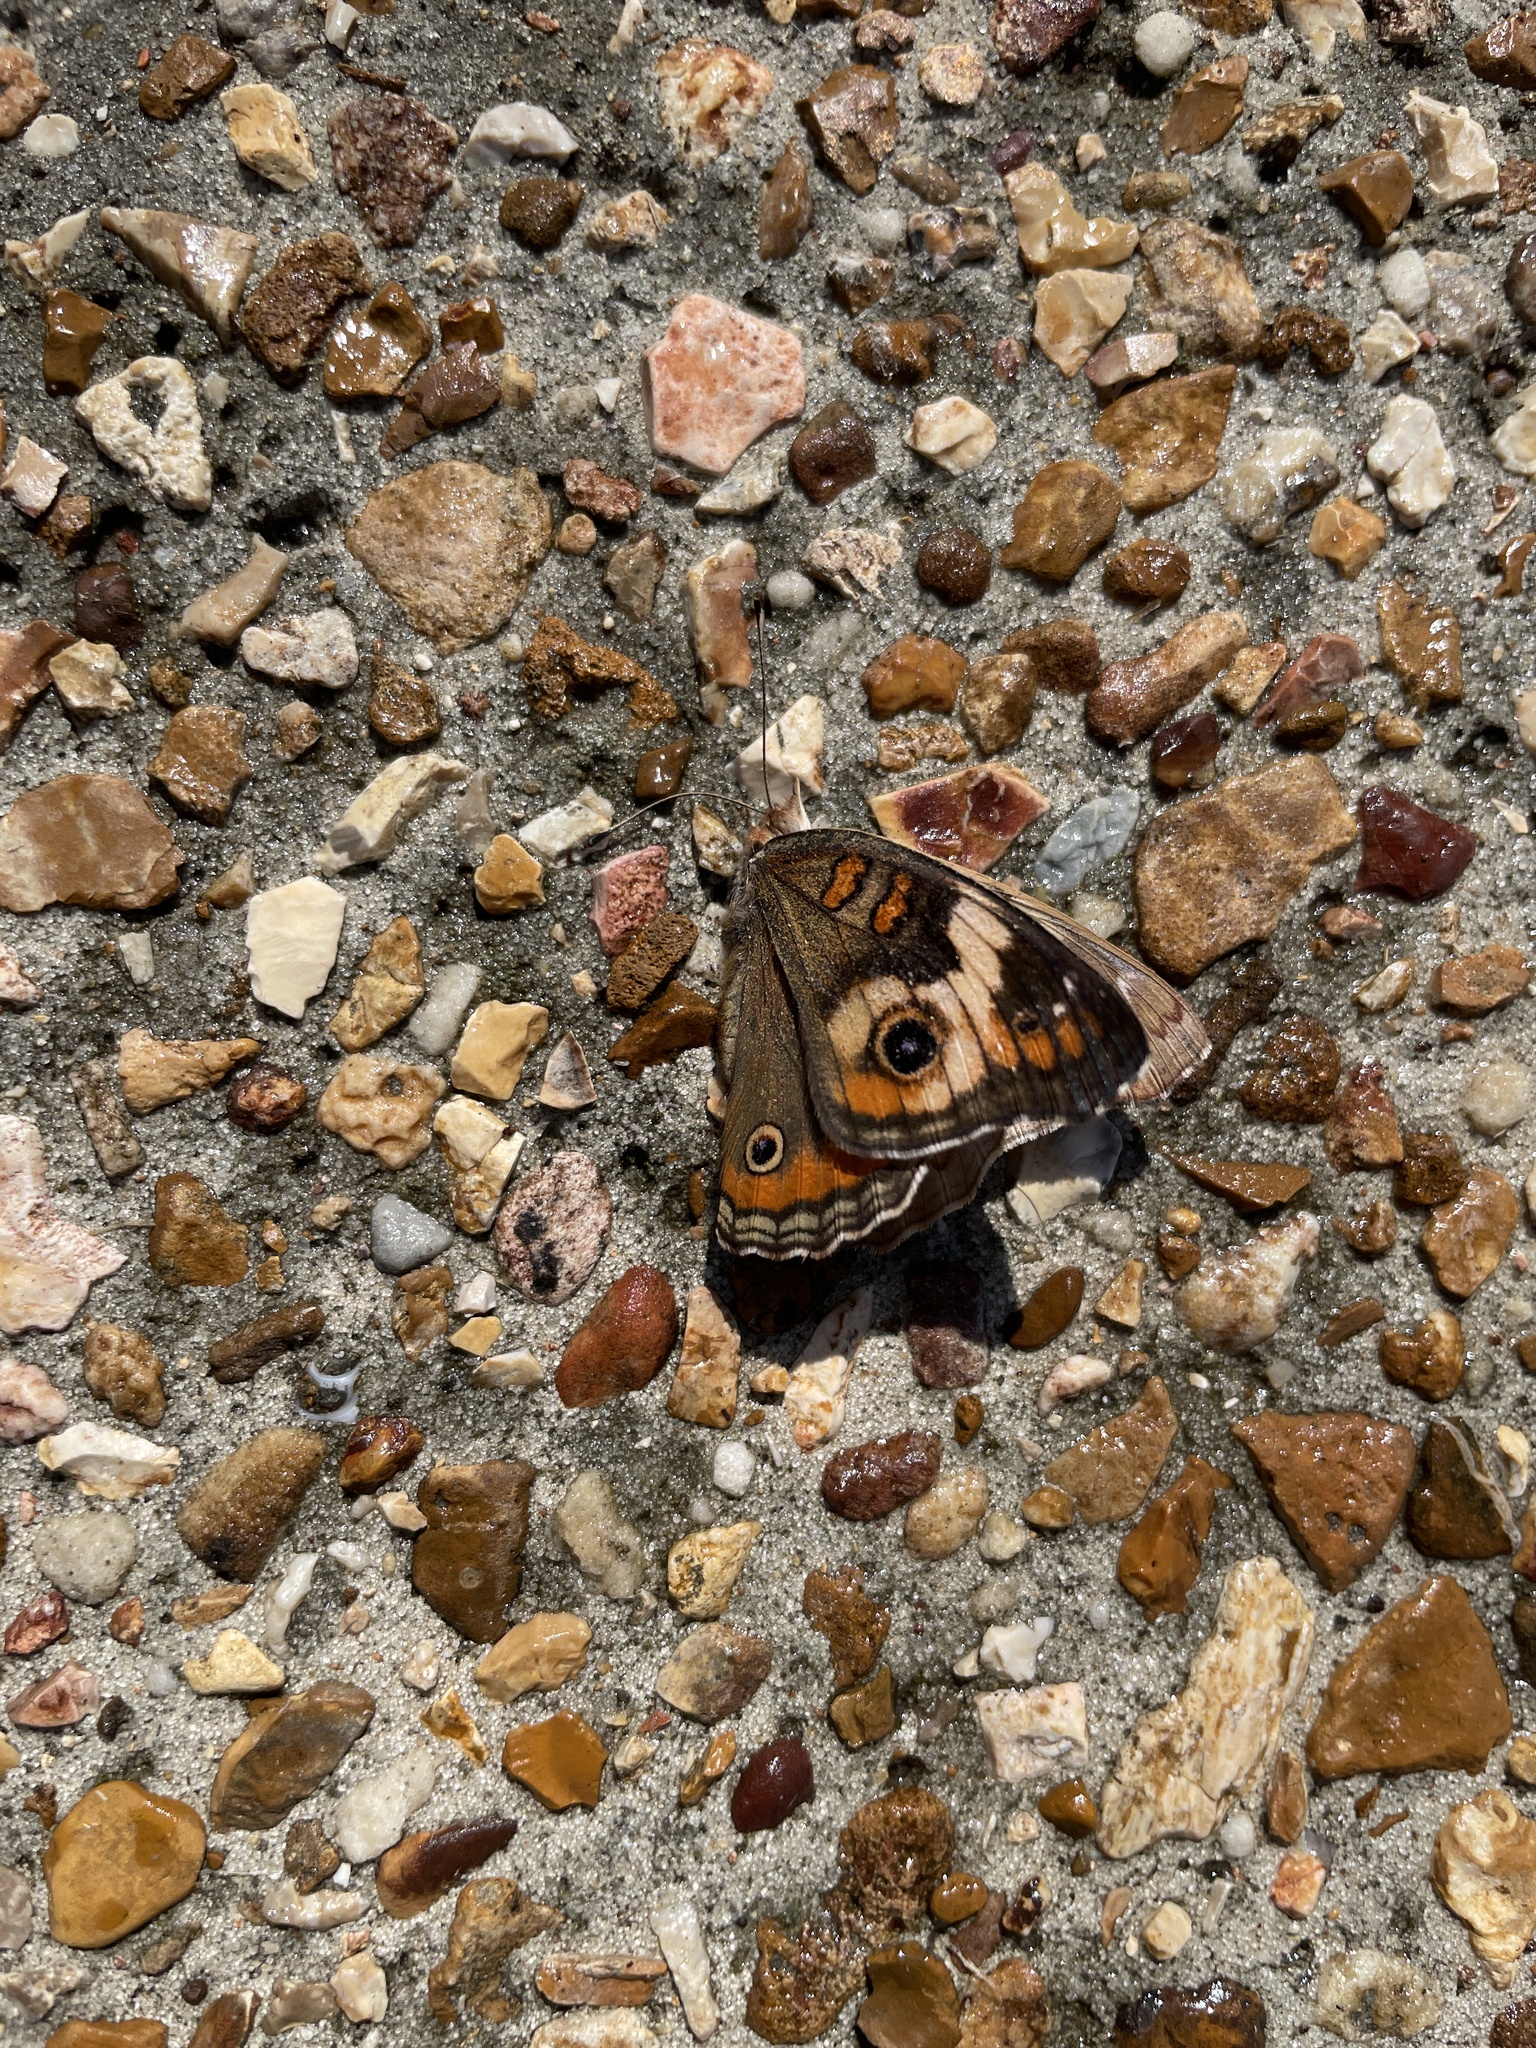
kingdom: Animalia
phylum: Arthropoda
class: Insecta
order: Lepidoptera
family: Nymphalidae
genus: Junonia
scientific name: Junonia coenia
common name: Common buckeye
